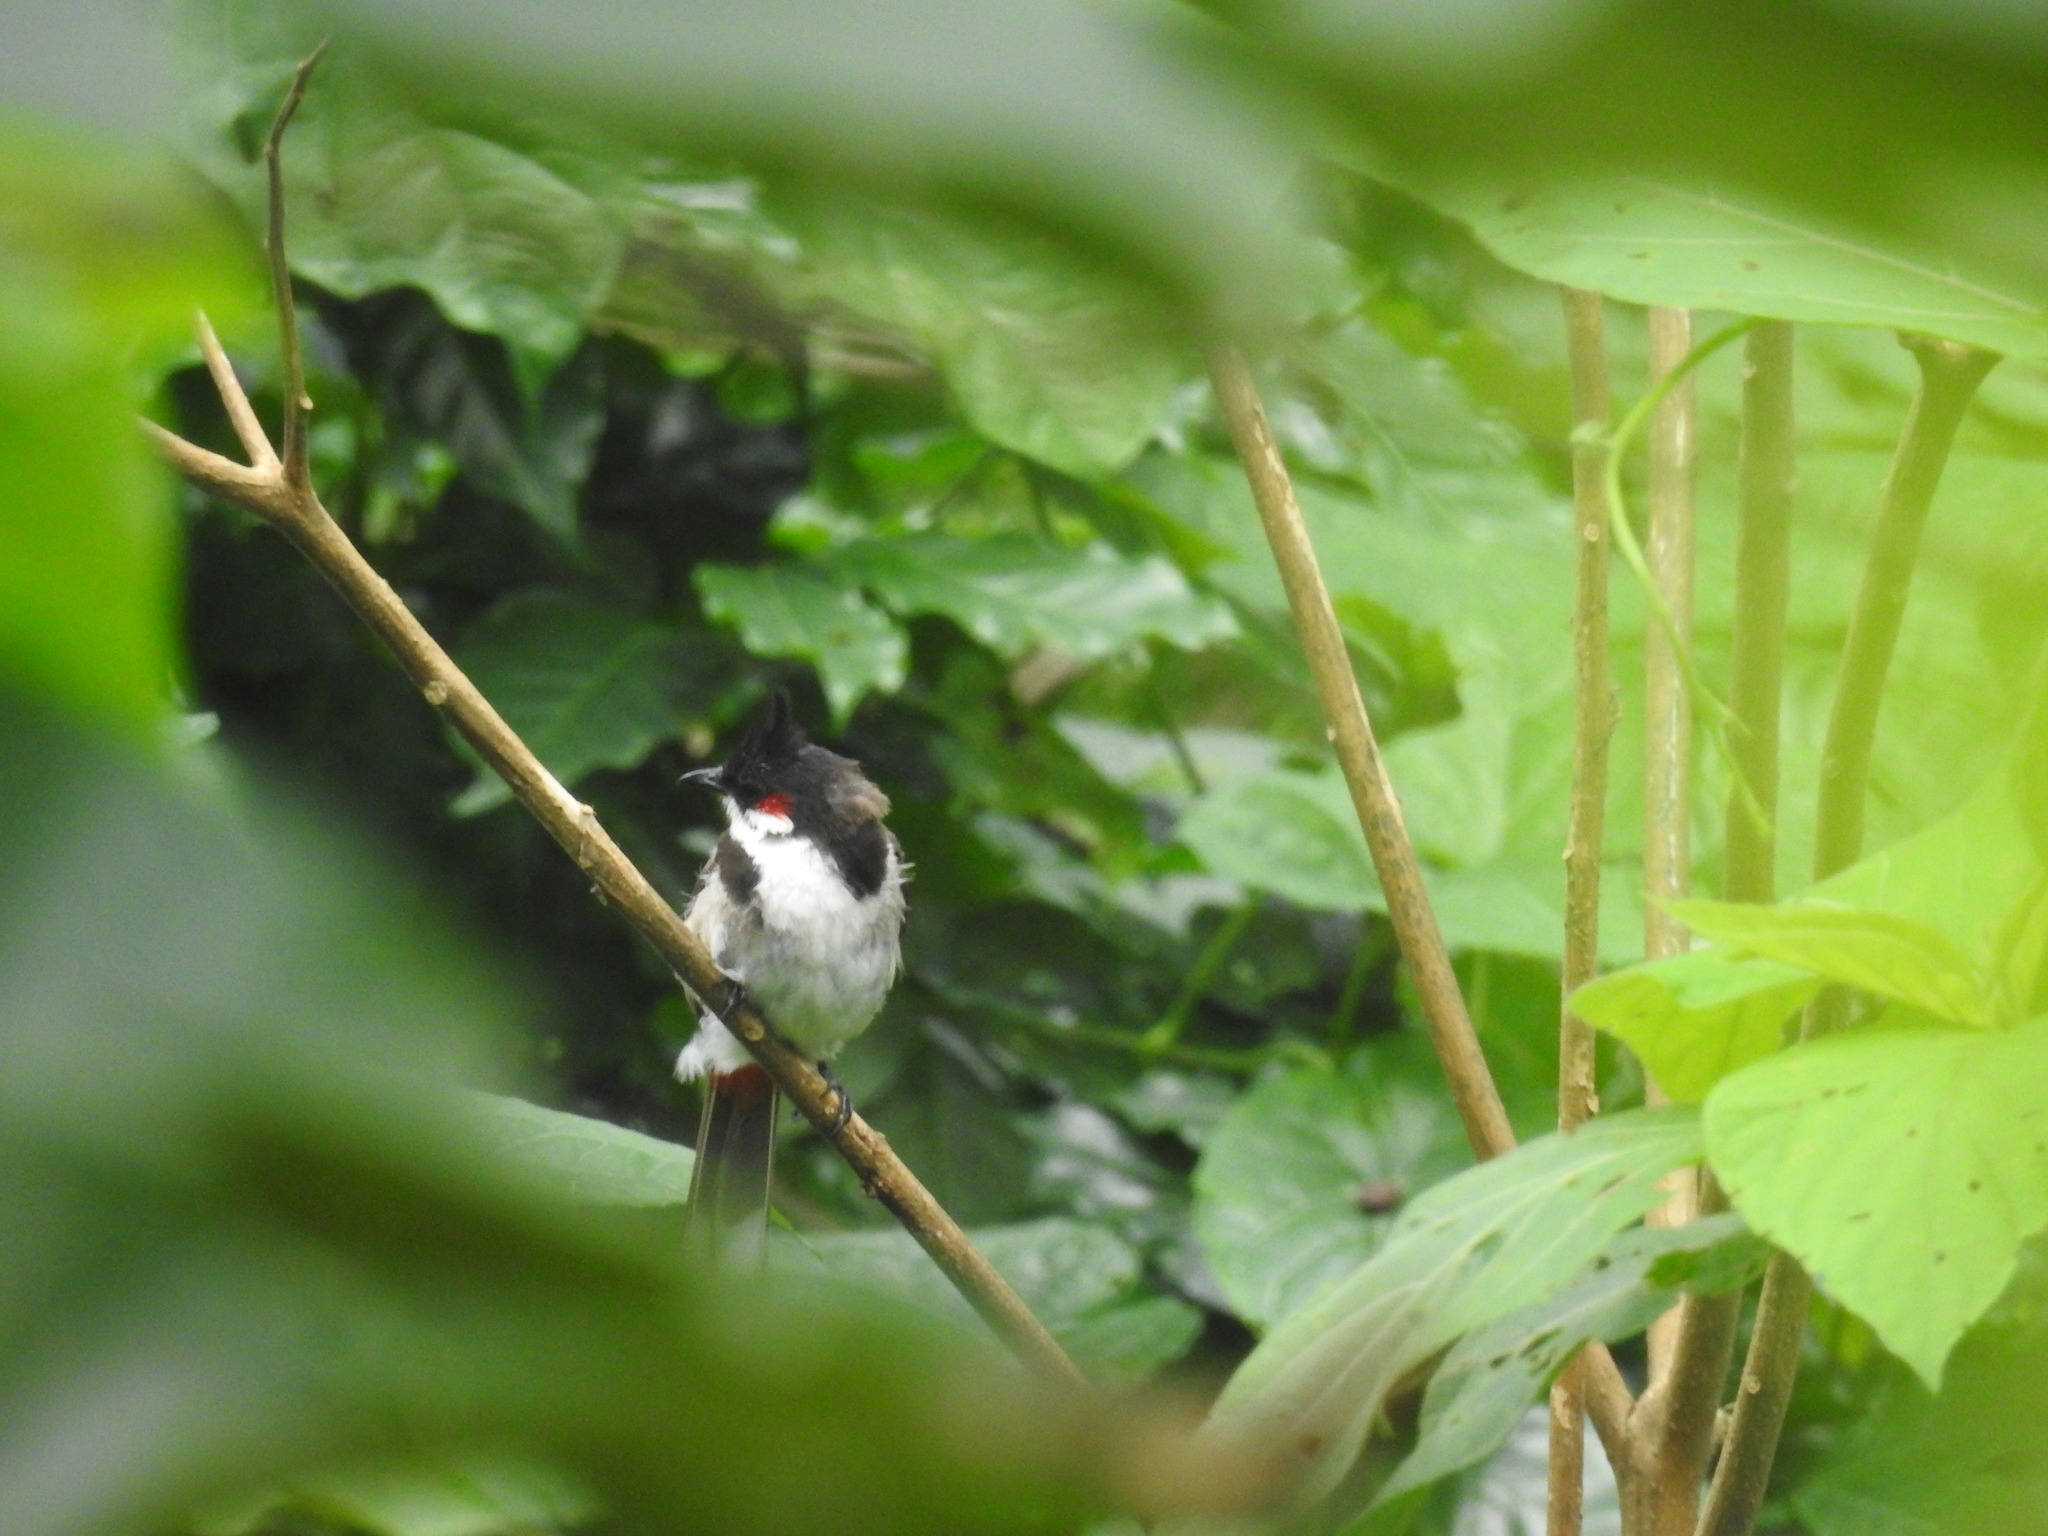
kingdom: Animalia
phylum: Chordata
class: Aves
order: Passeriformes
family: Pycnonotidae
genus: Pycnonotus
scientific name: Pycnonotus jocosus
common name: Red-whiskered bulbul
